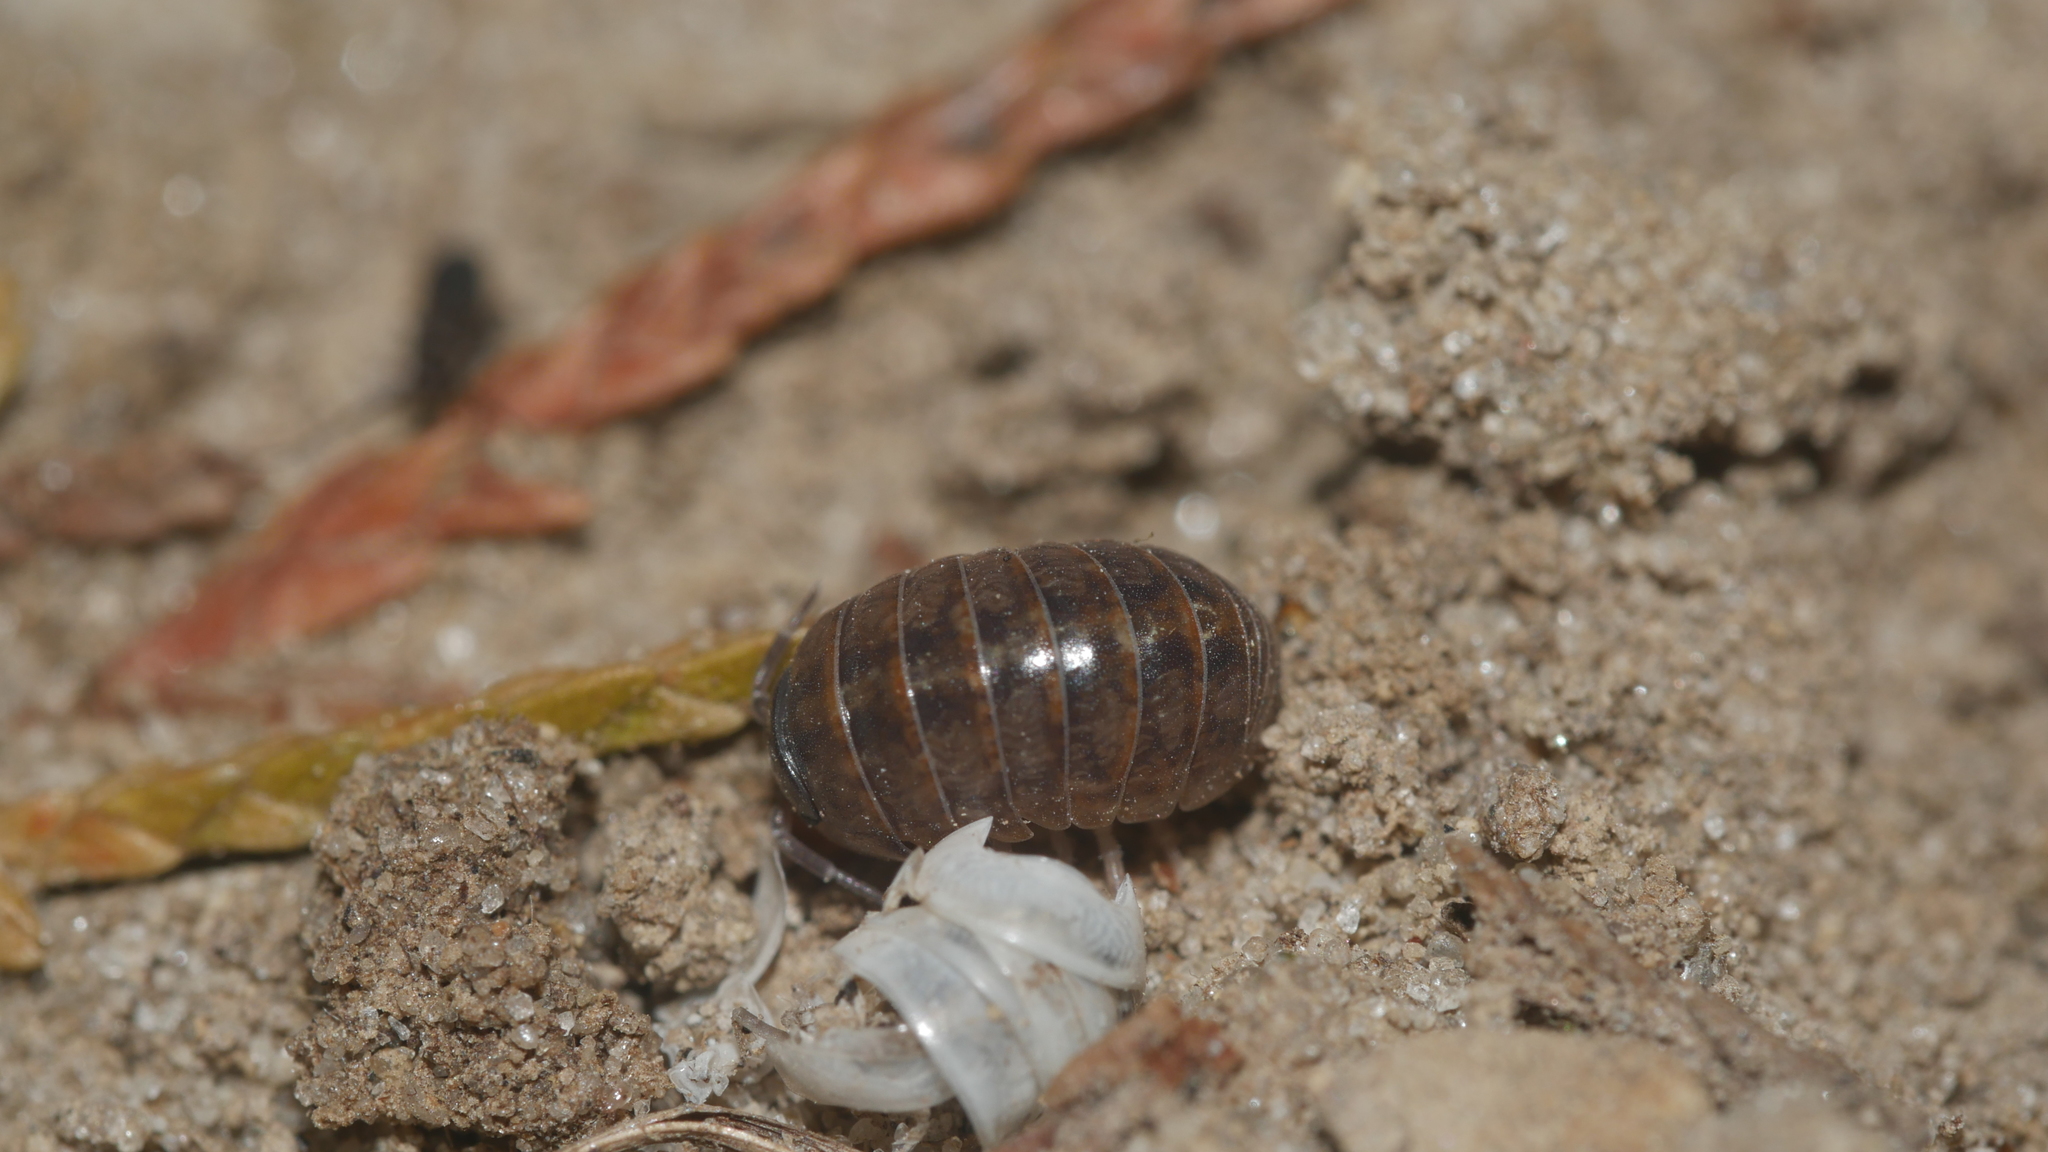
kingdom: Animalia
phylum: Arthropoda
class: Malacostraca
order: Isopoda
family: Armadillidiidae
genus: Armadillidium
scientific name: Armadillidium vulgare
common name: Common pill woodlouse
